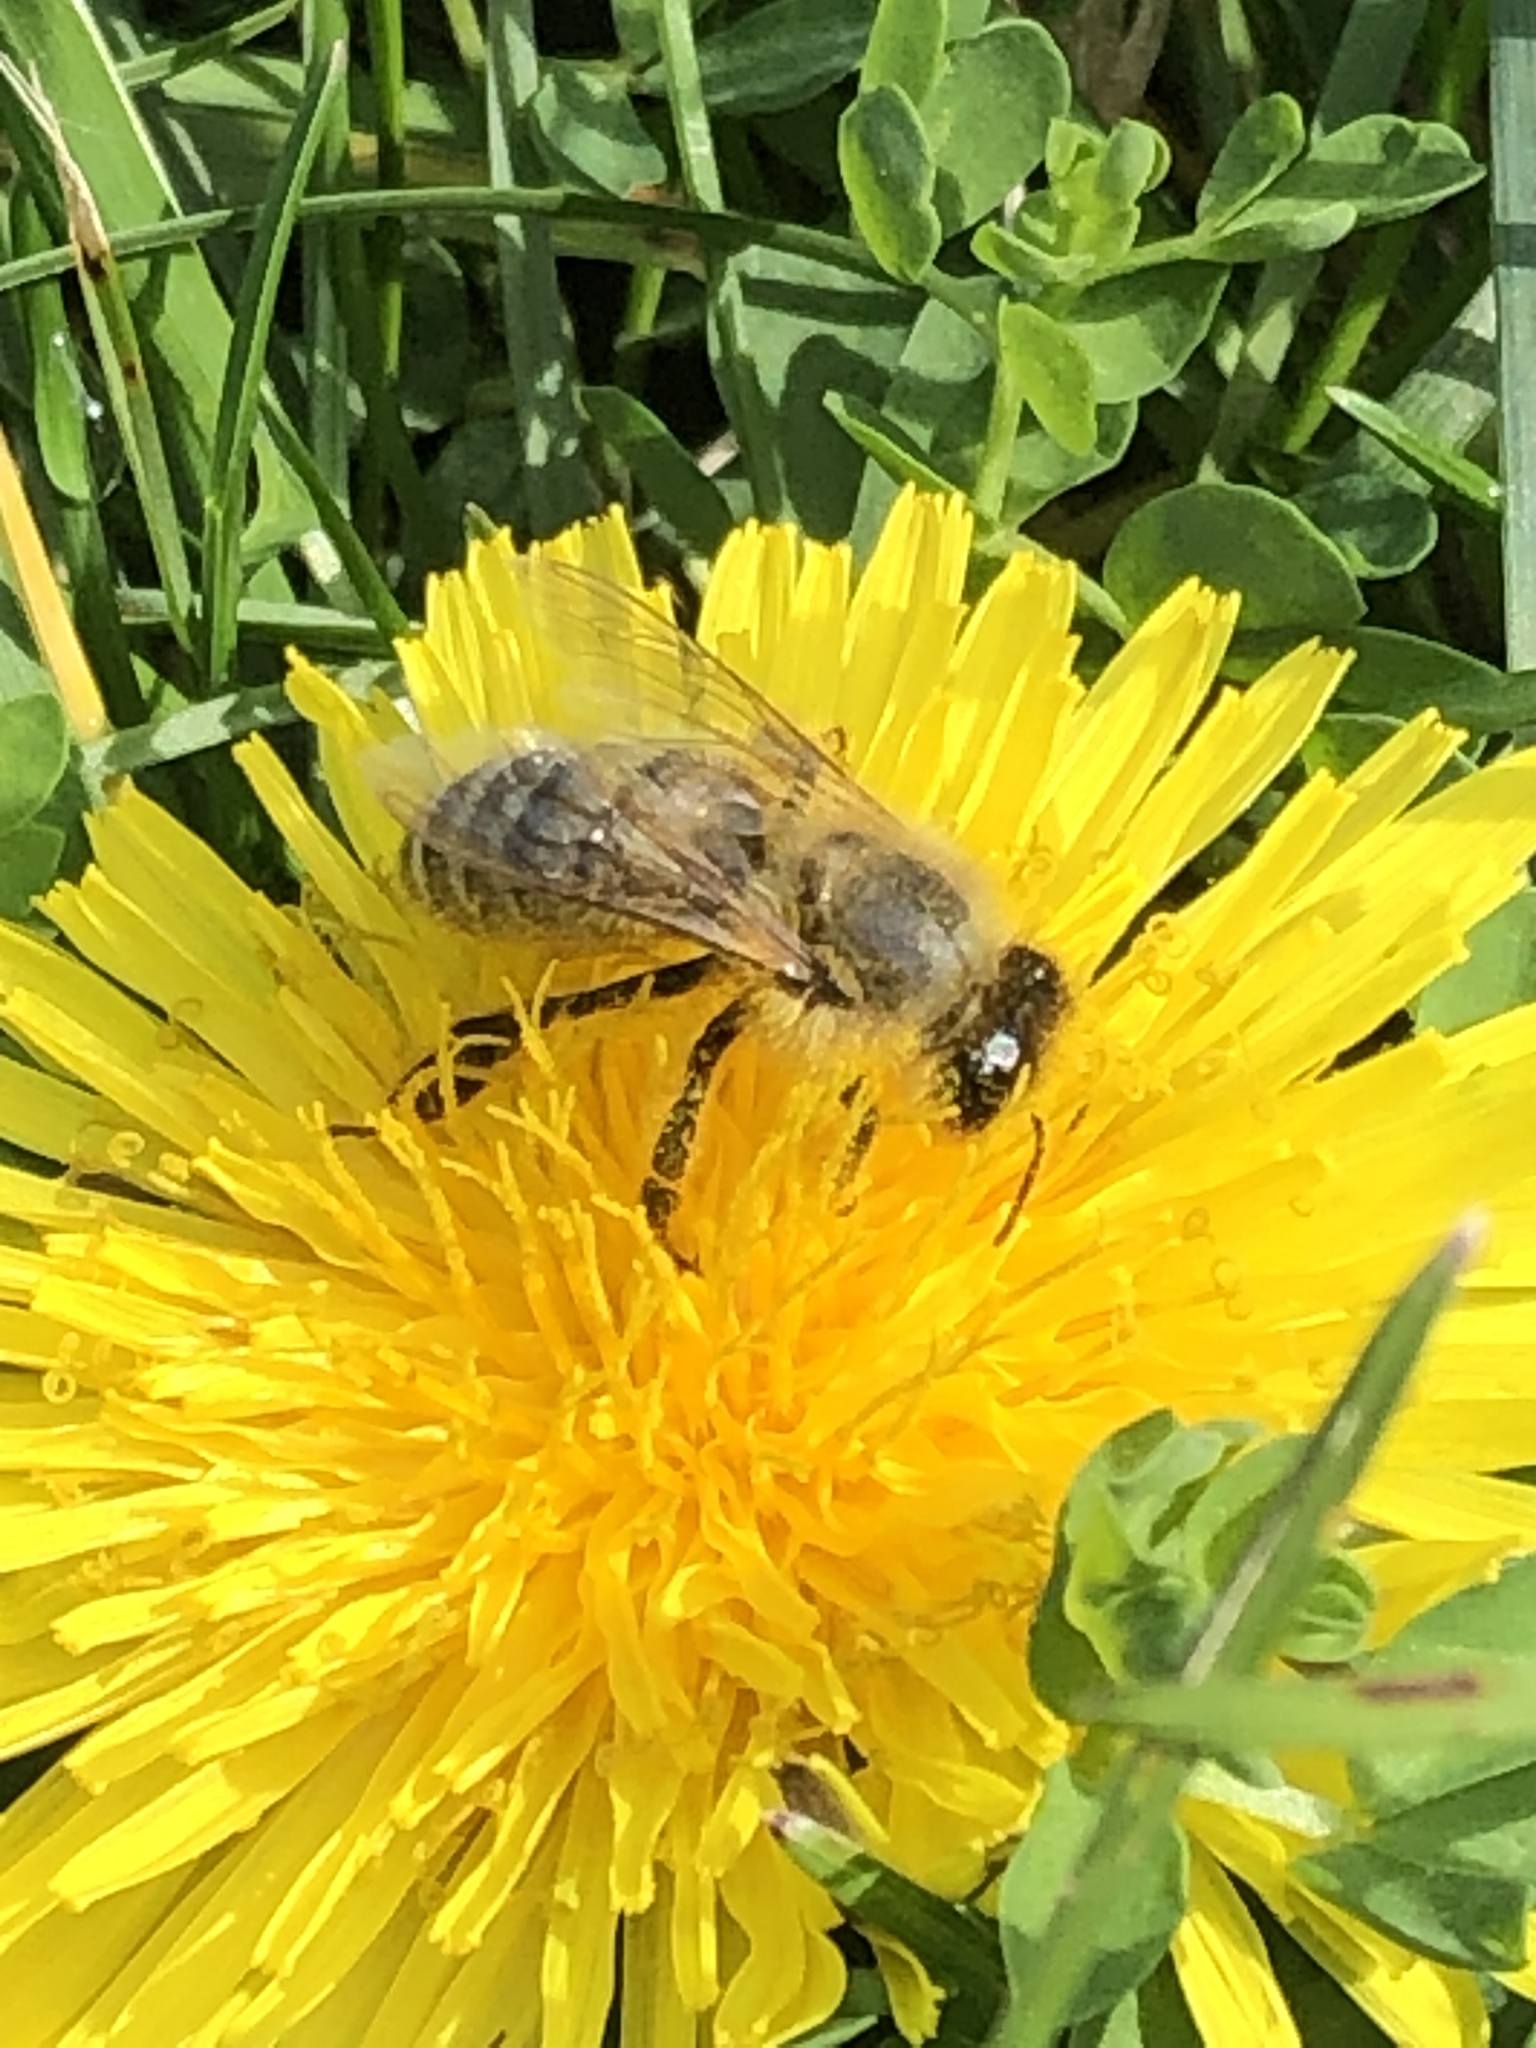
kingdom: Animalia
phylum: Arthropoda
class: Insecta
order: Hymenoptera
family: Apidae
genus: Apis
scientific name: Apis mellifera
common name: Honey bee
